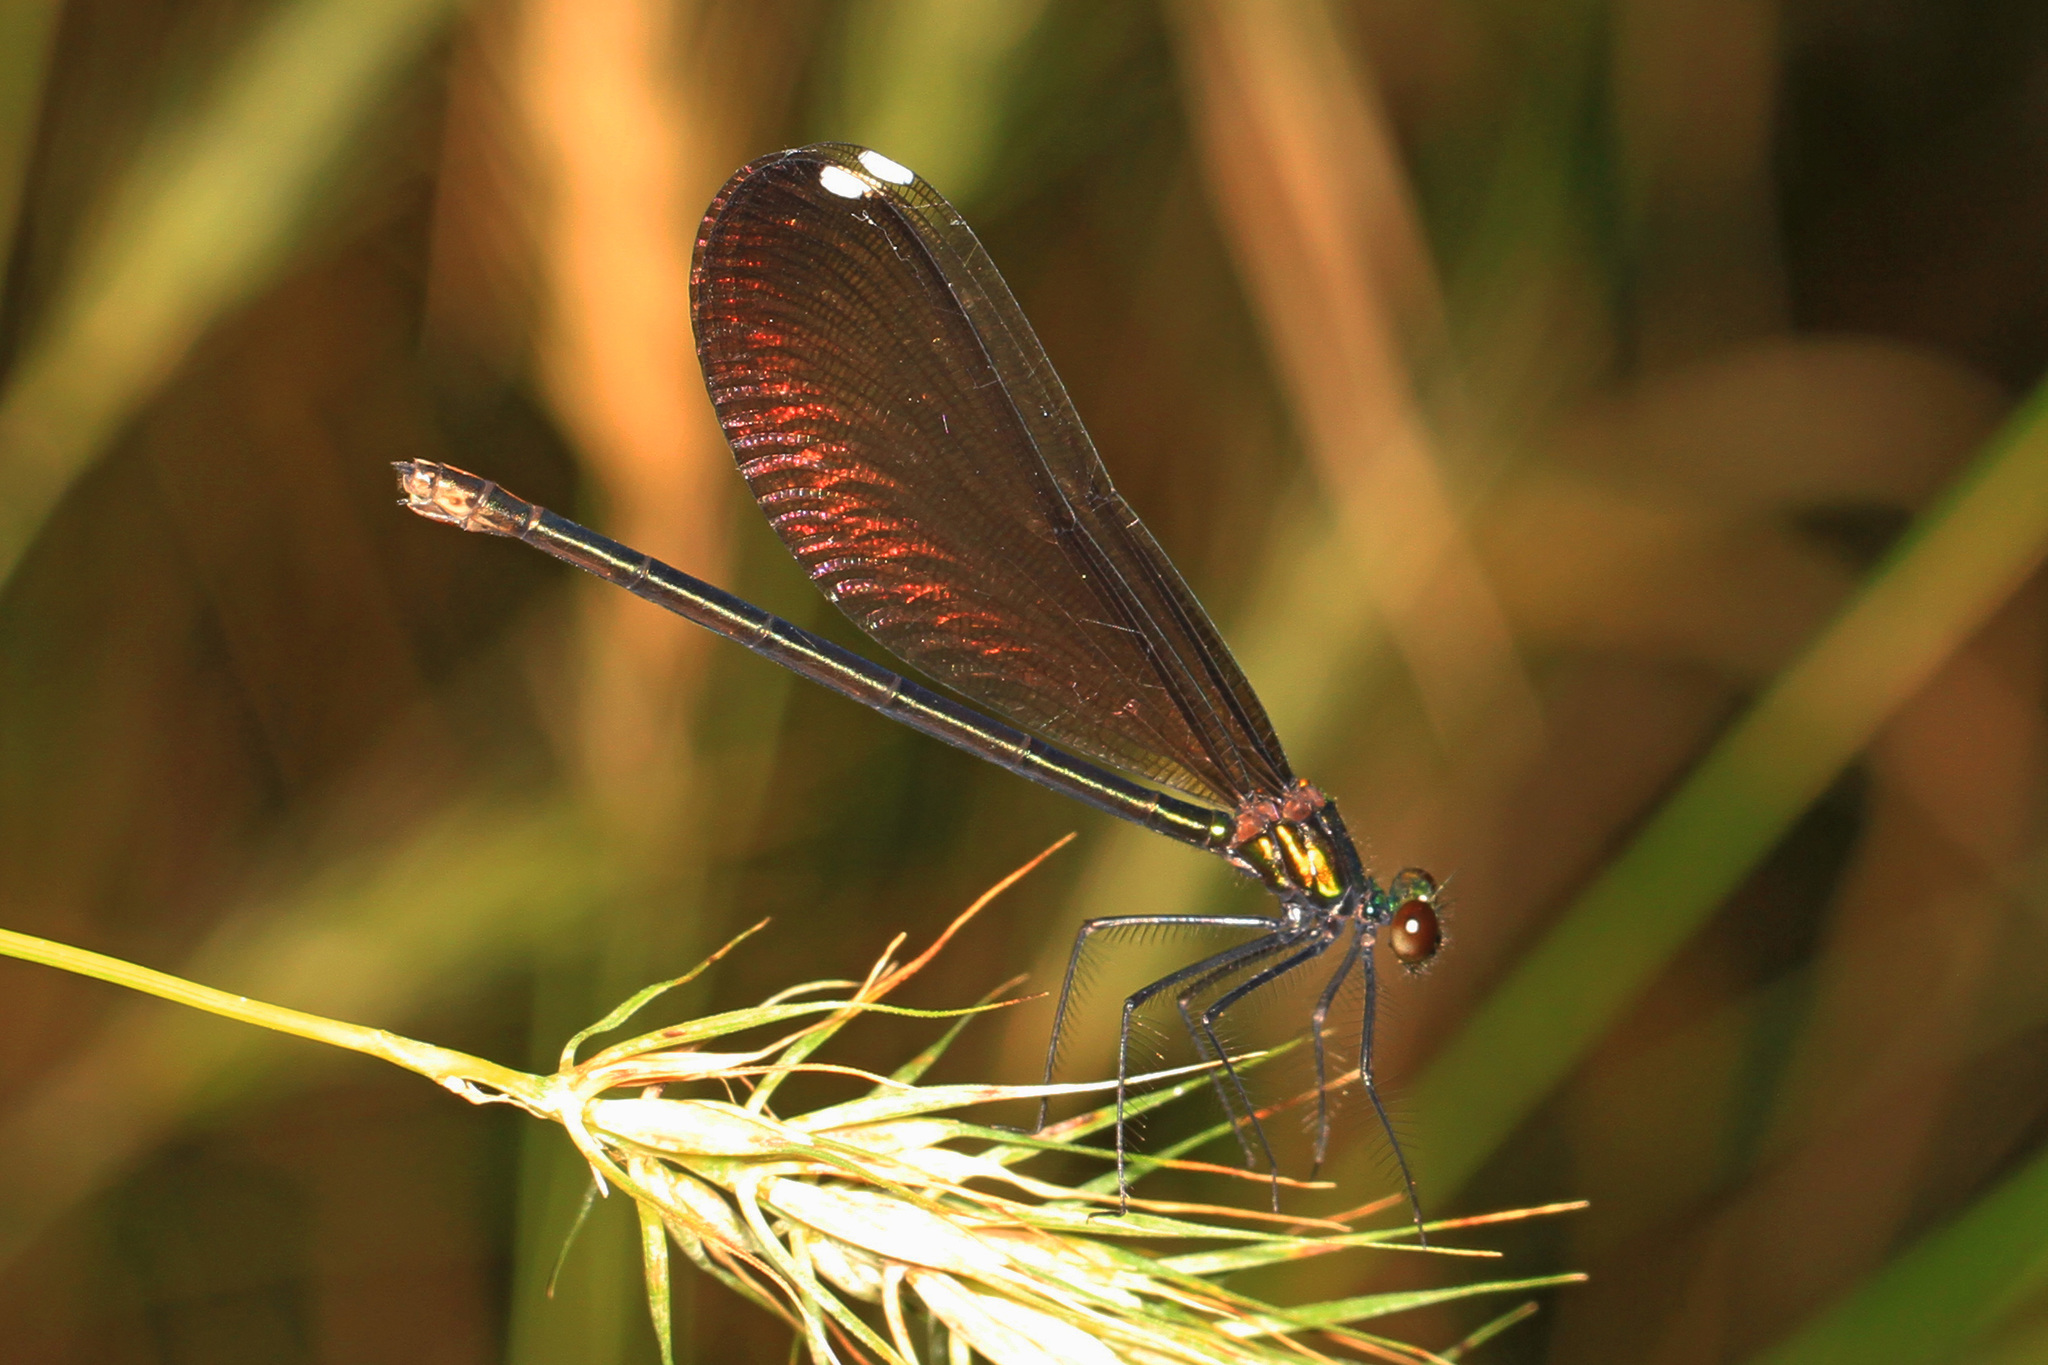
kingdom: Animalia
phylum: Arthropoda
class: Insecta
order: Odonata
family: Calopterygidae
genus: Calopteryx
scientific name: Calopteryx maculata
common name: Ebony jewelwing
